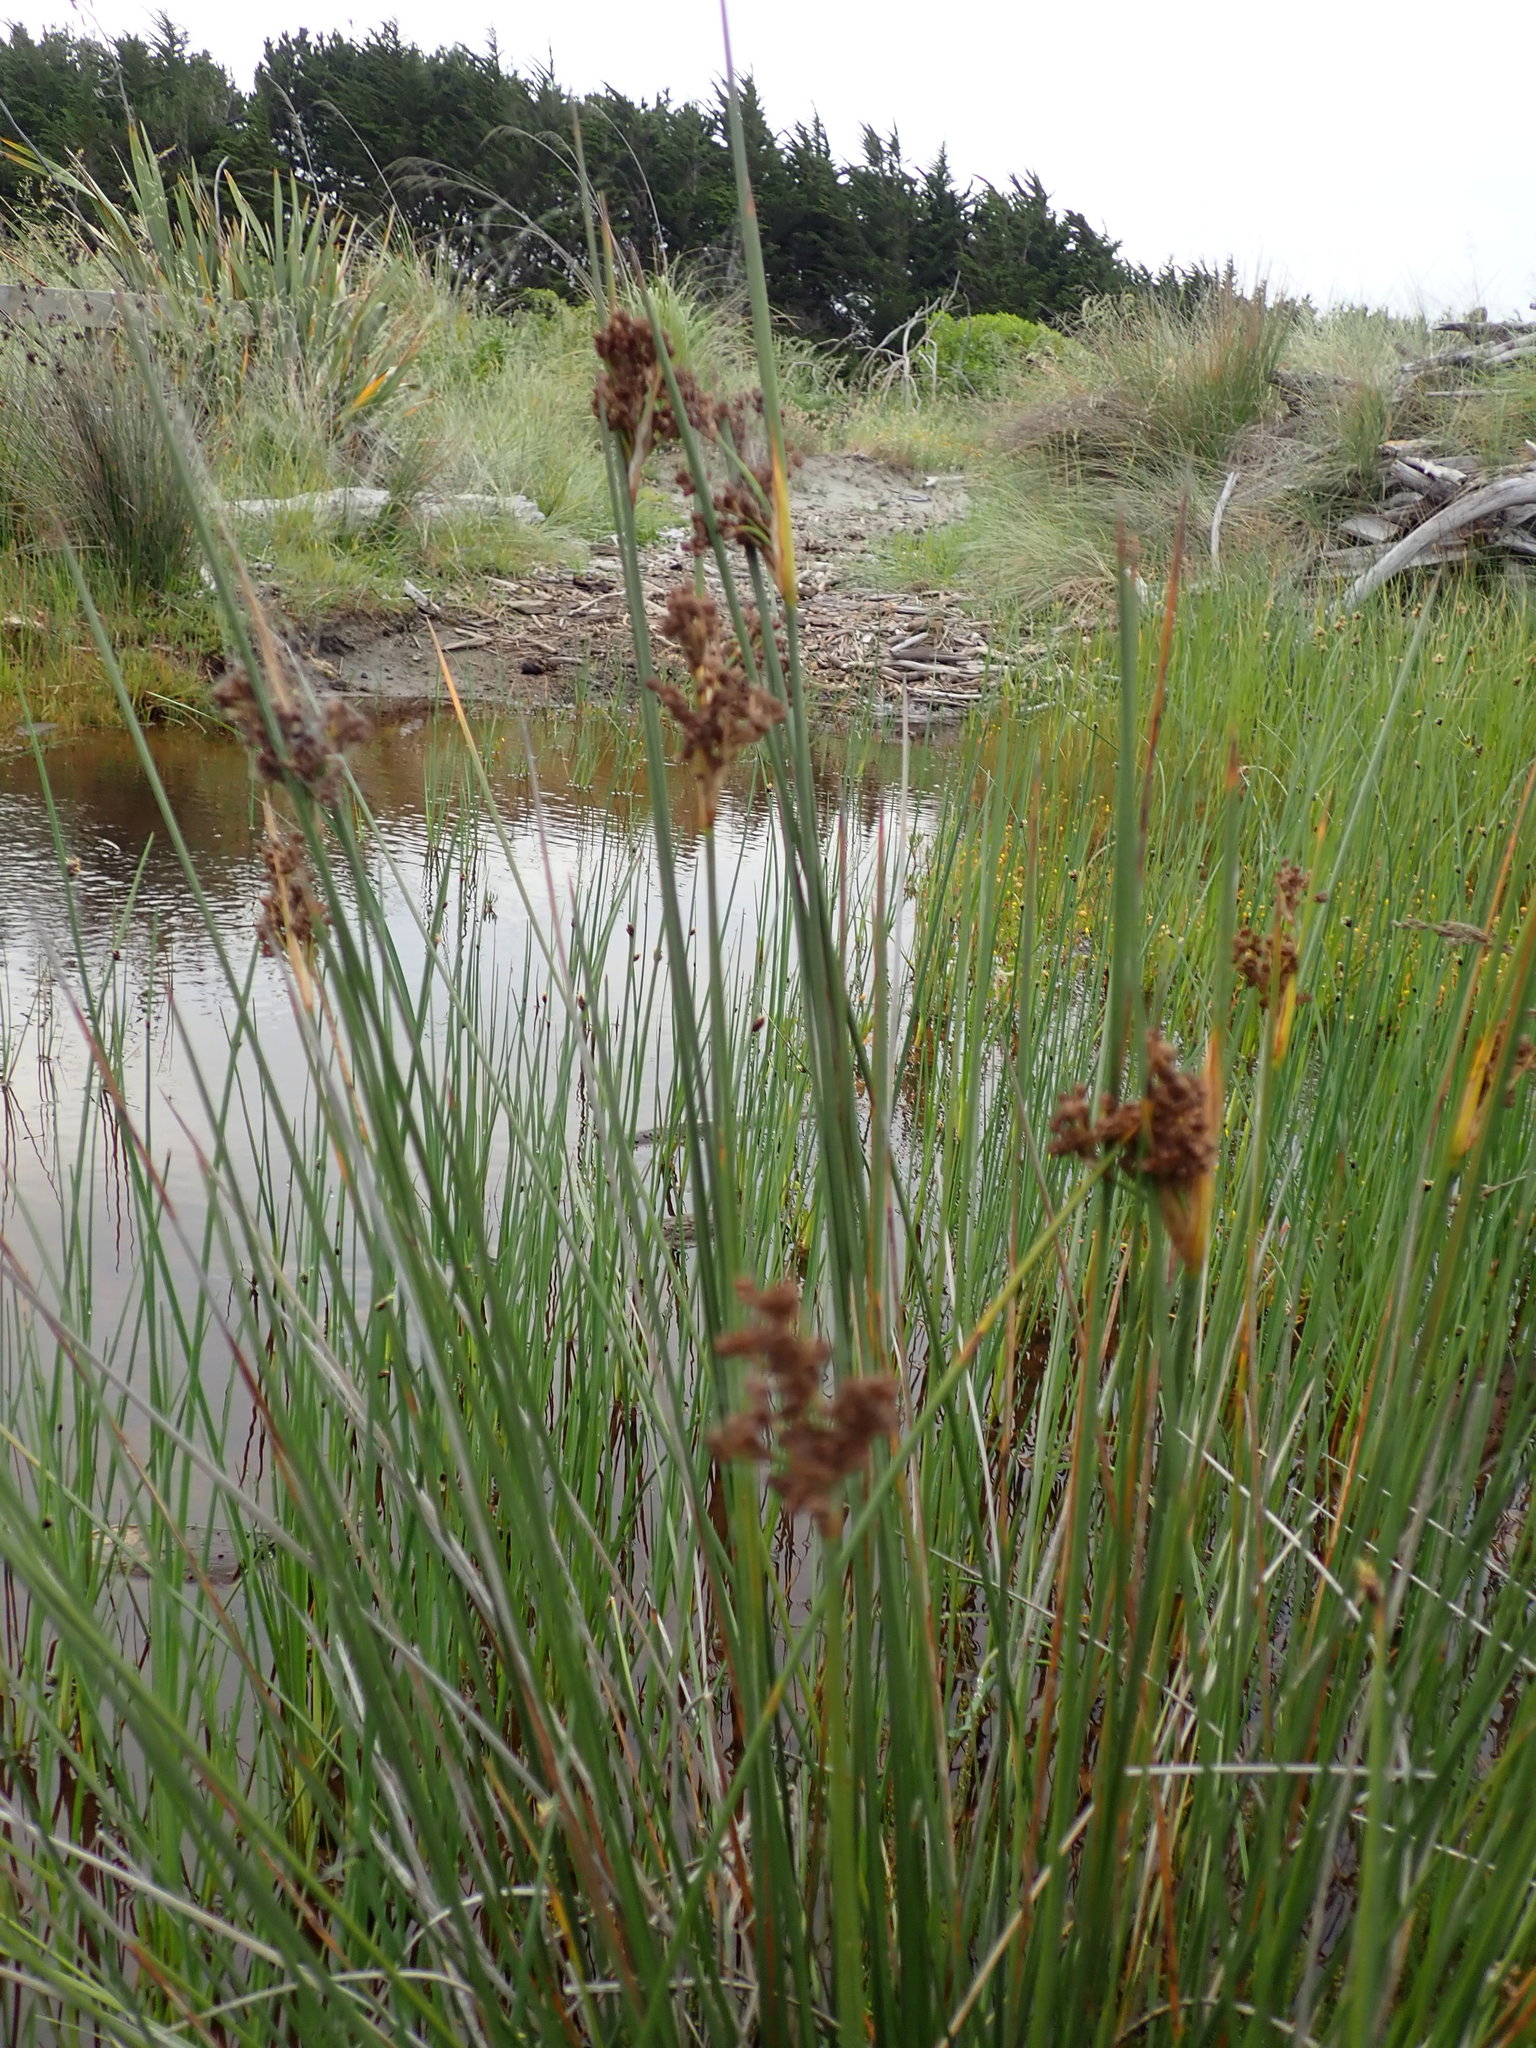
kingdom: Plantae
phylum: Tracheophyta
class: Liliopsida
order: Poales
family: Juncaceae
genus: Juncus
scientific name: Juncus acutus
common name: Sharp rush
